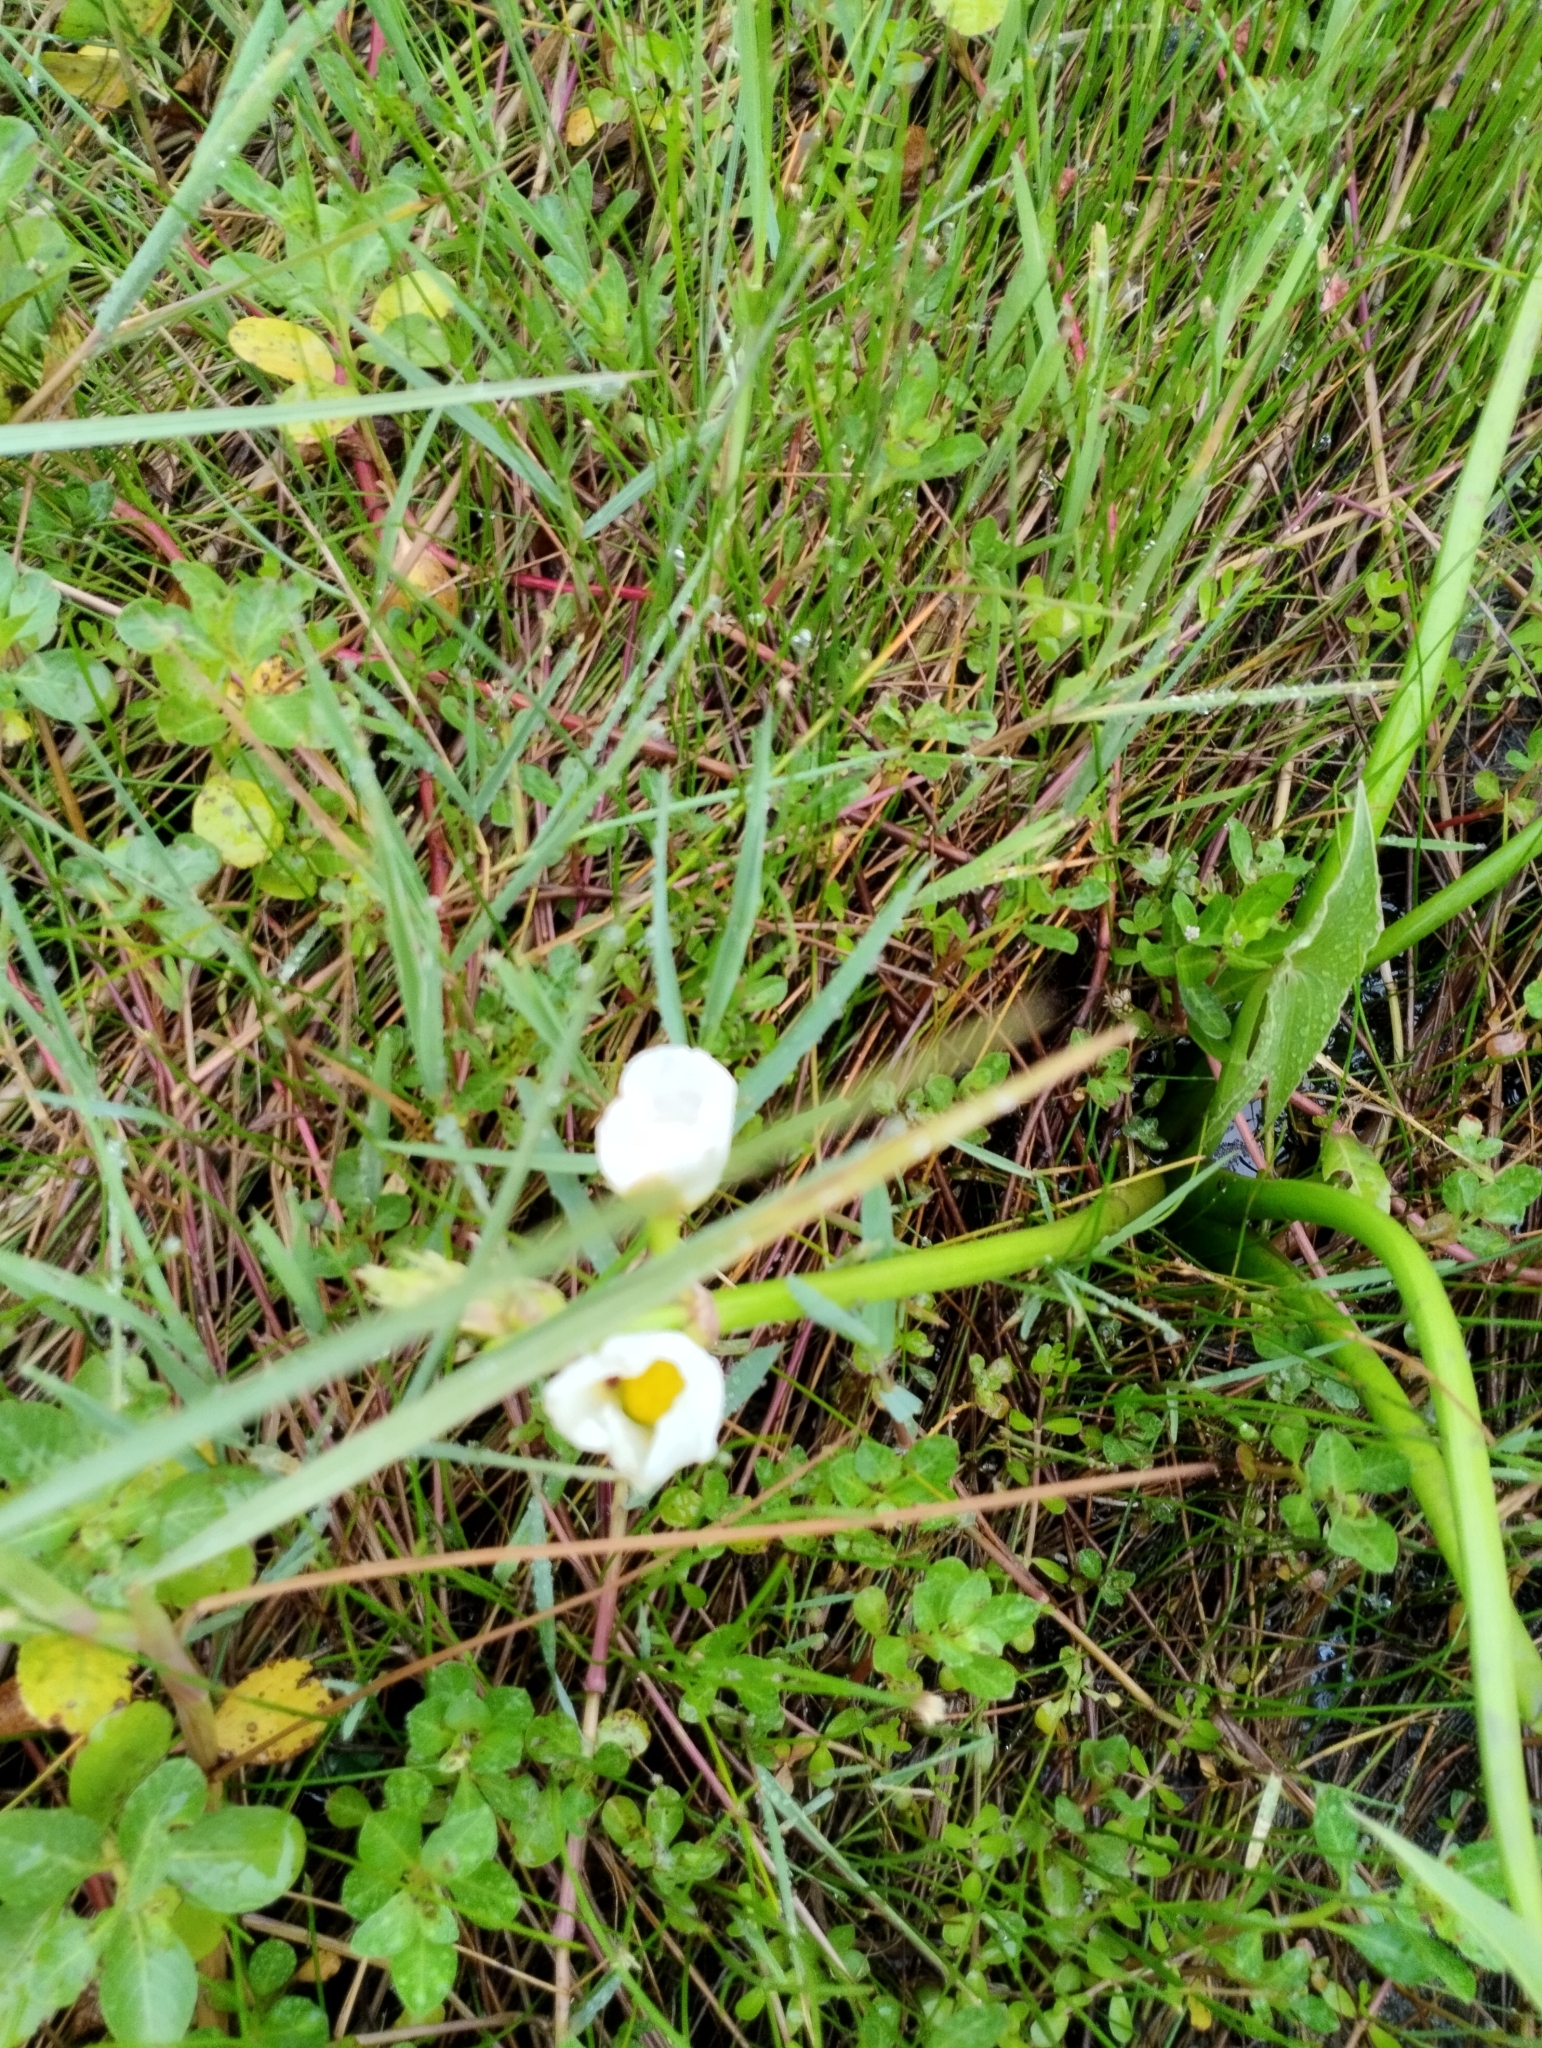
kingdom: Plantae
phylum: Tracheophyta
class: Liliopsida
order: Alismatales
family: Alismataceae
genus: Sagittaria
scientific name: Sagittaria montevidensis
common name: Giant arrowhead
